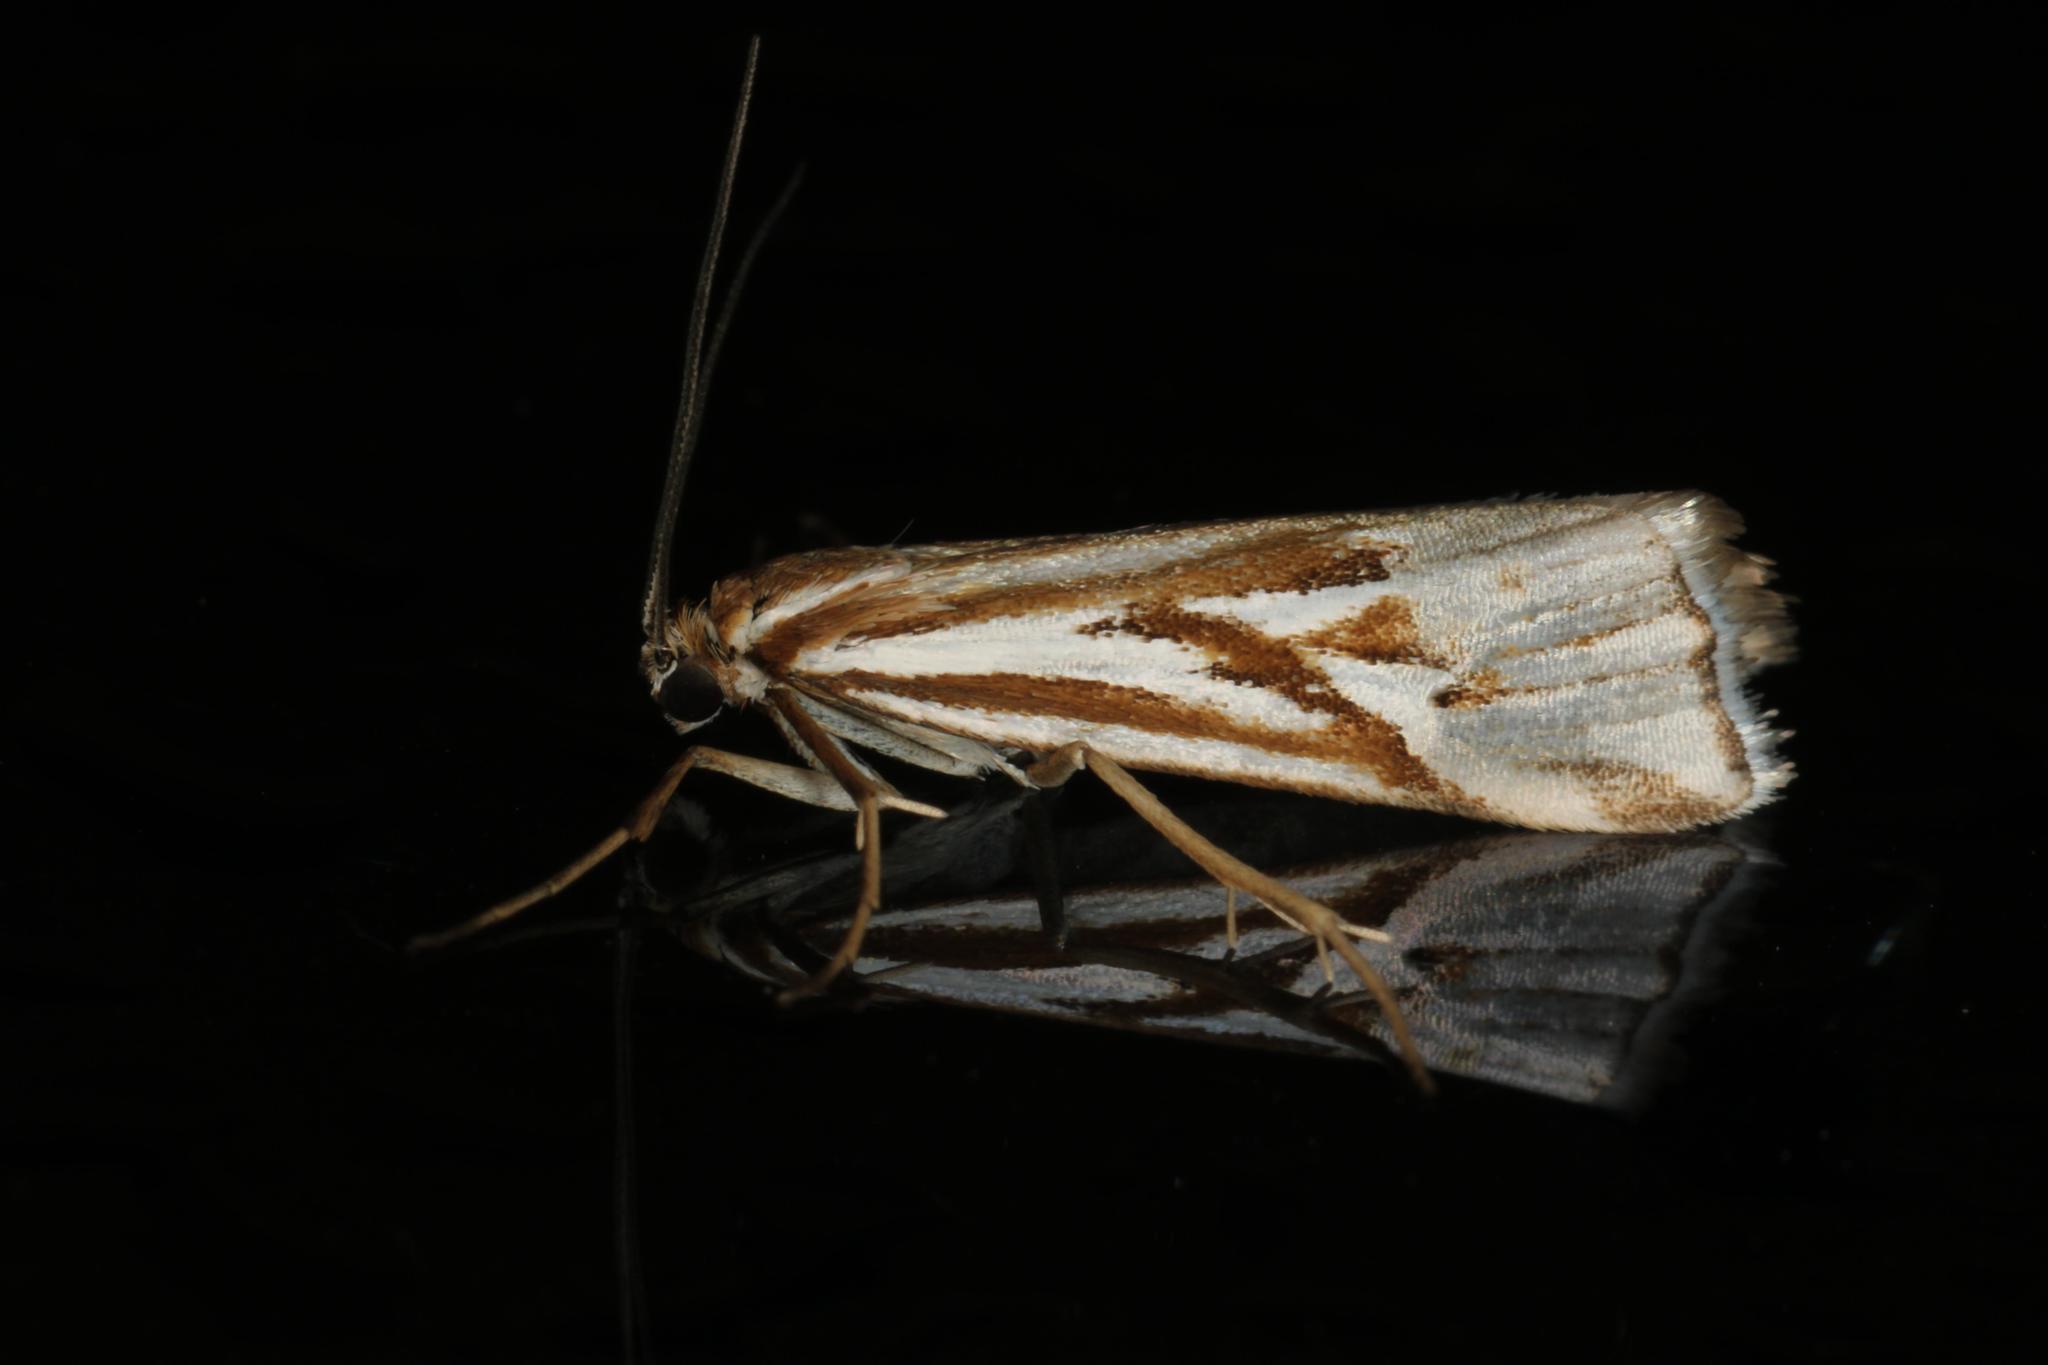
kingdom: Animalia
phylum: Arthropoda
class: Insecta
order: Lepidoptera
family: Crambidae
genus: Hednota
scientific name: Hednota pleniferellus
